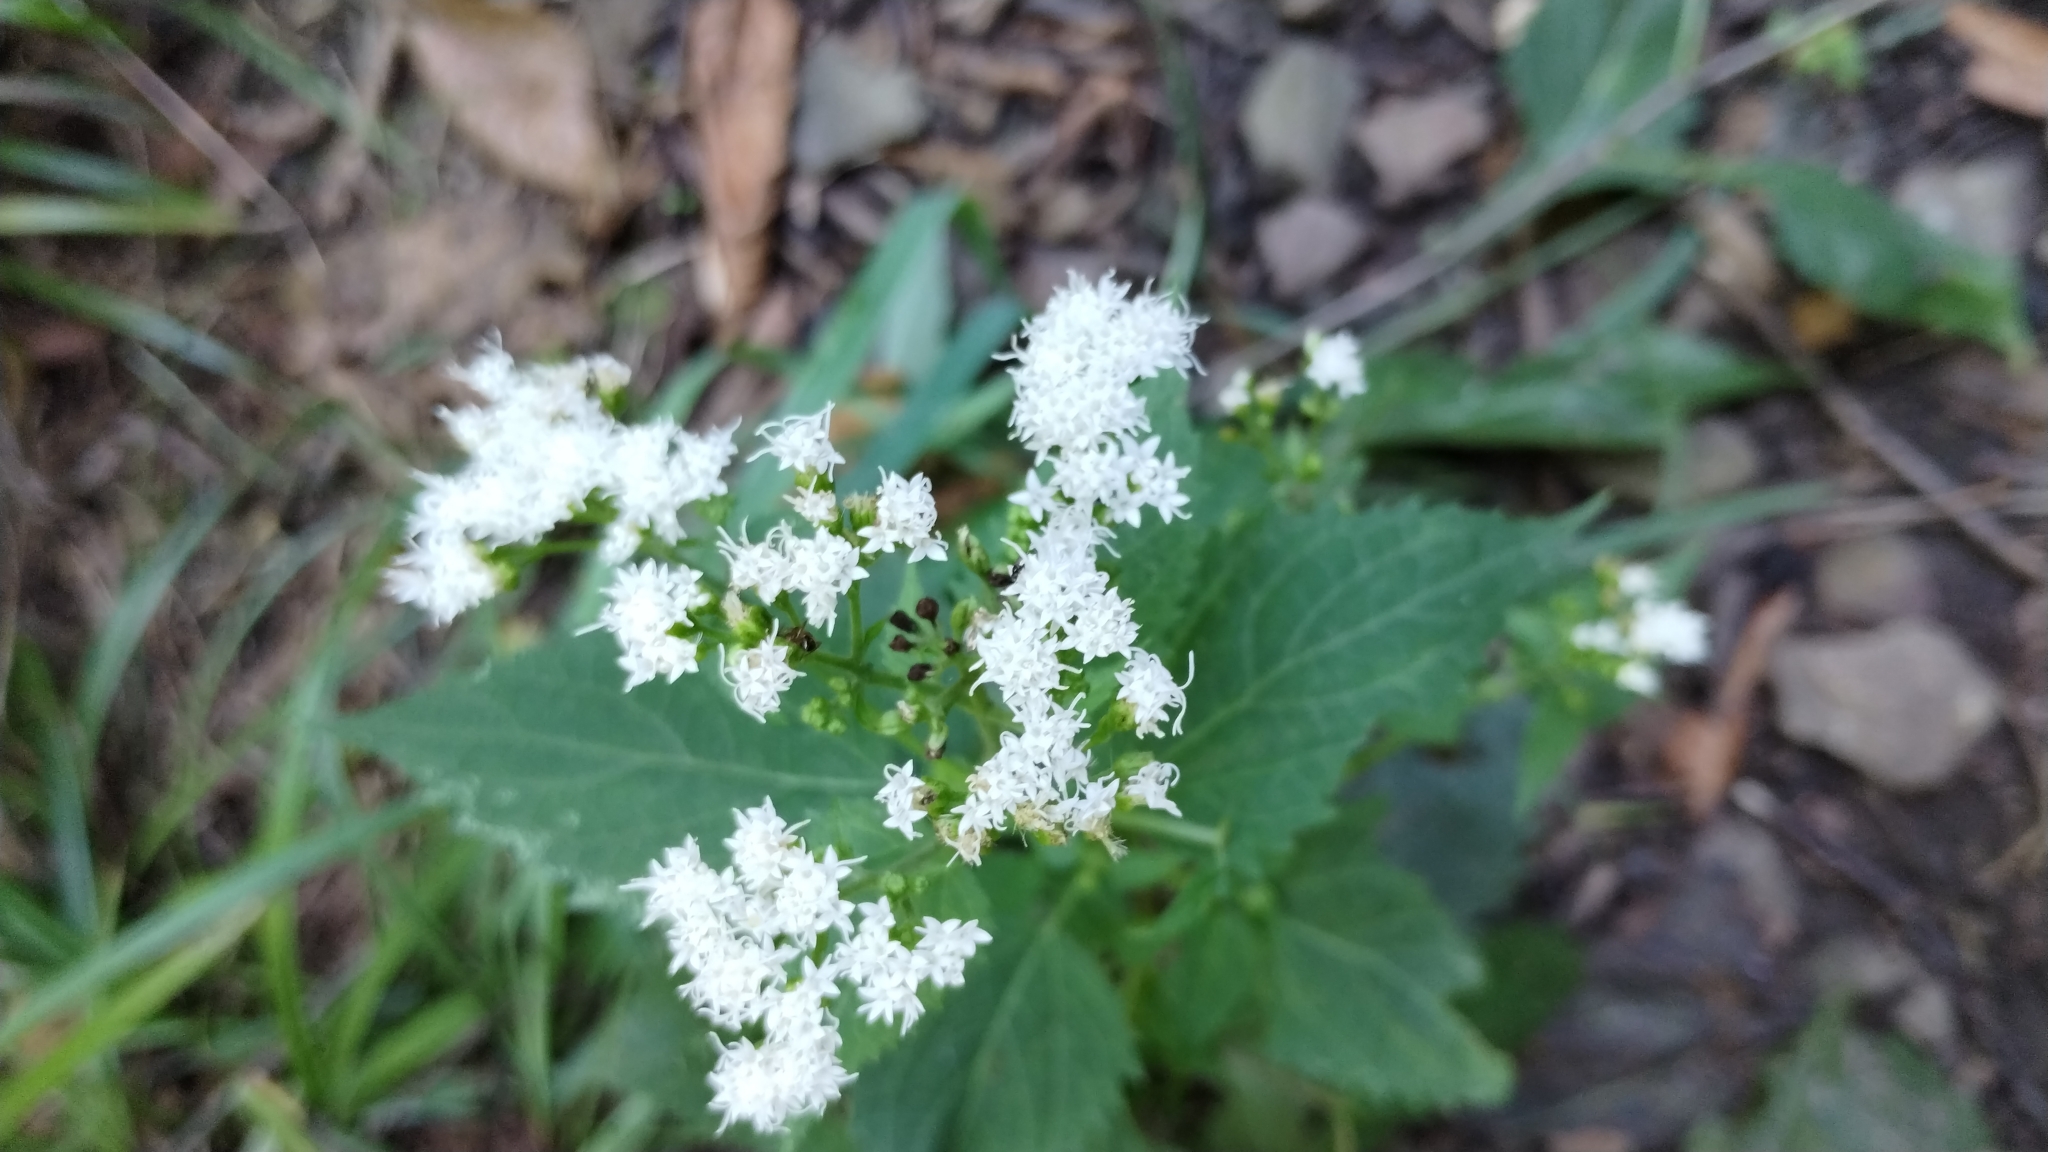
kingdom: Plantae
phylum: Tracheophyta
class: Magnoliopsida
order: Asterales
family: Asteraceae
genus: Ageratina
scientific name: Ageratina altissima
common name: White snakeroot
